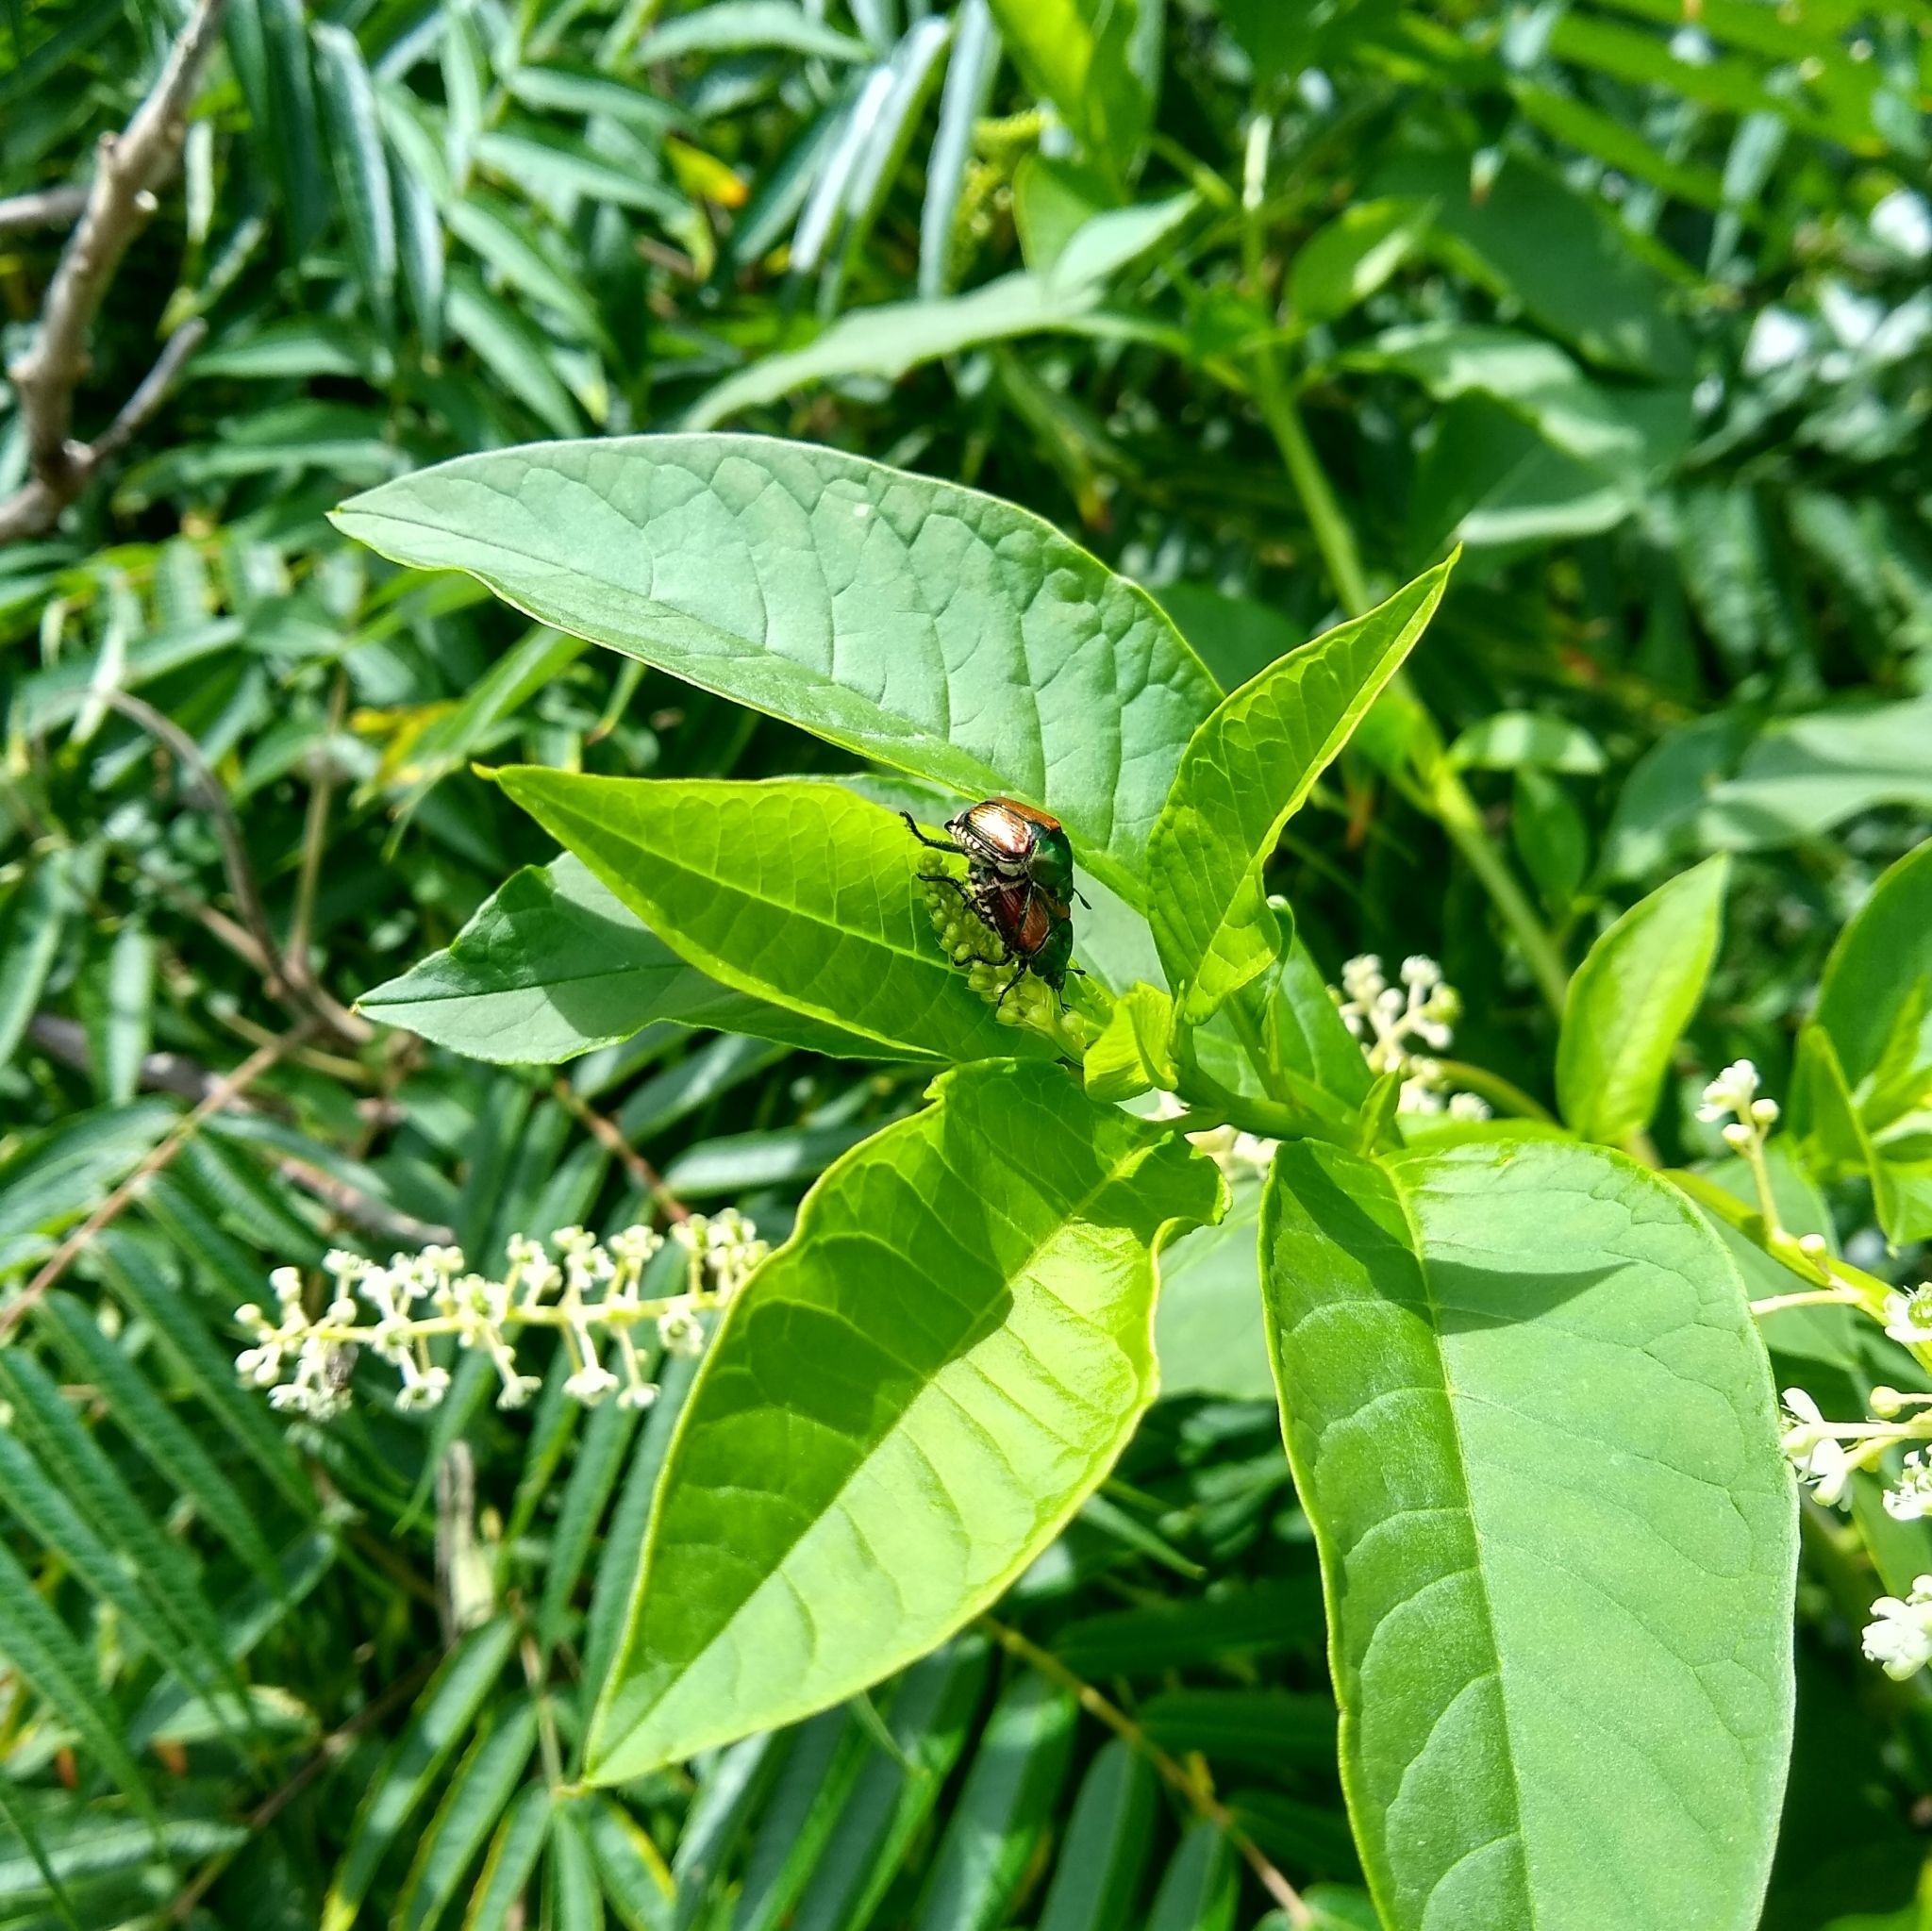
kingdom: Plantae
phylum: Tracheophyta
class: Magnoliopsida
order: Caryophyllales
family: Phytolaccaceae
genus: Phytolacca
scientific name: Phytolacca americana
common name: American pokeweed
